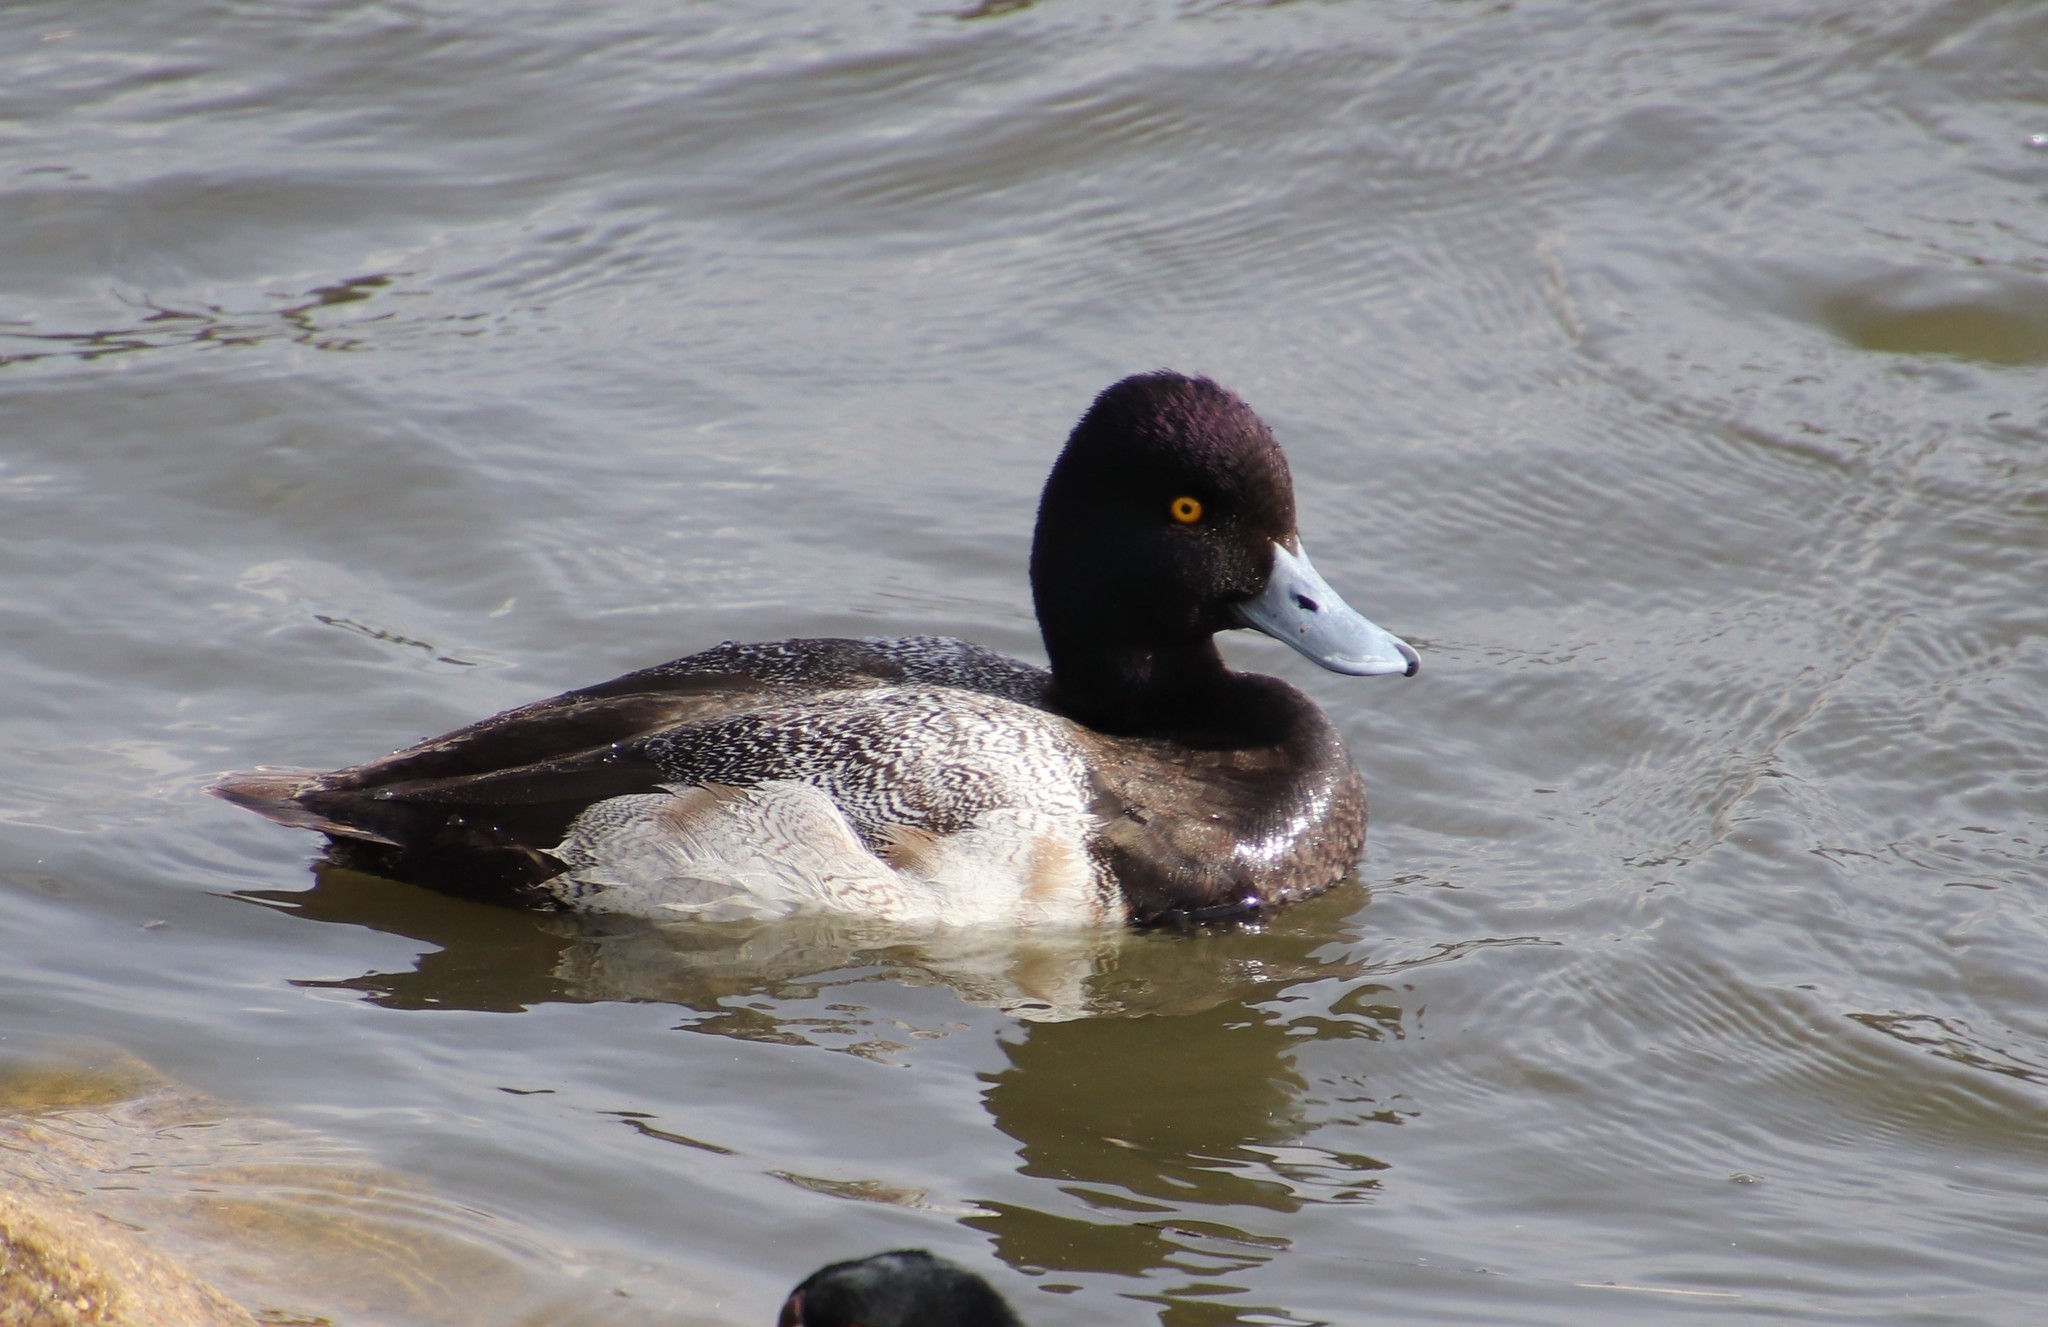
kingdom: Animalia
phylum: Chordata
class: Aves
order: Anseriformes
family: Anatidae
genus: Aythya
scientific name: Aythya affinis
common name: Lesser scaup
